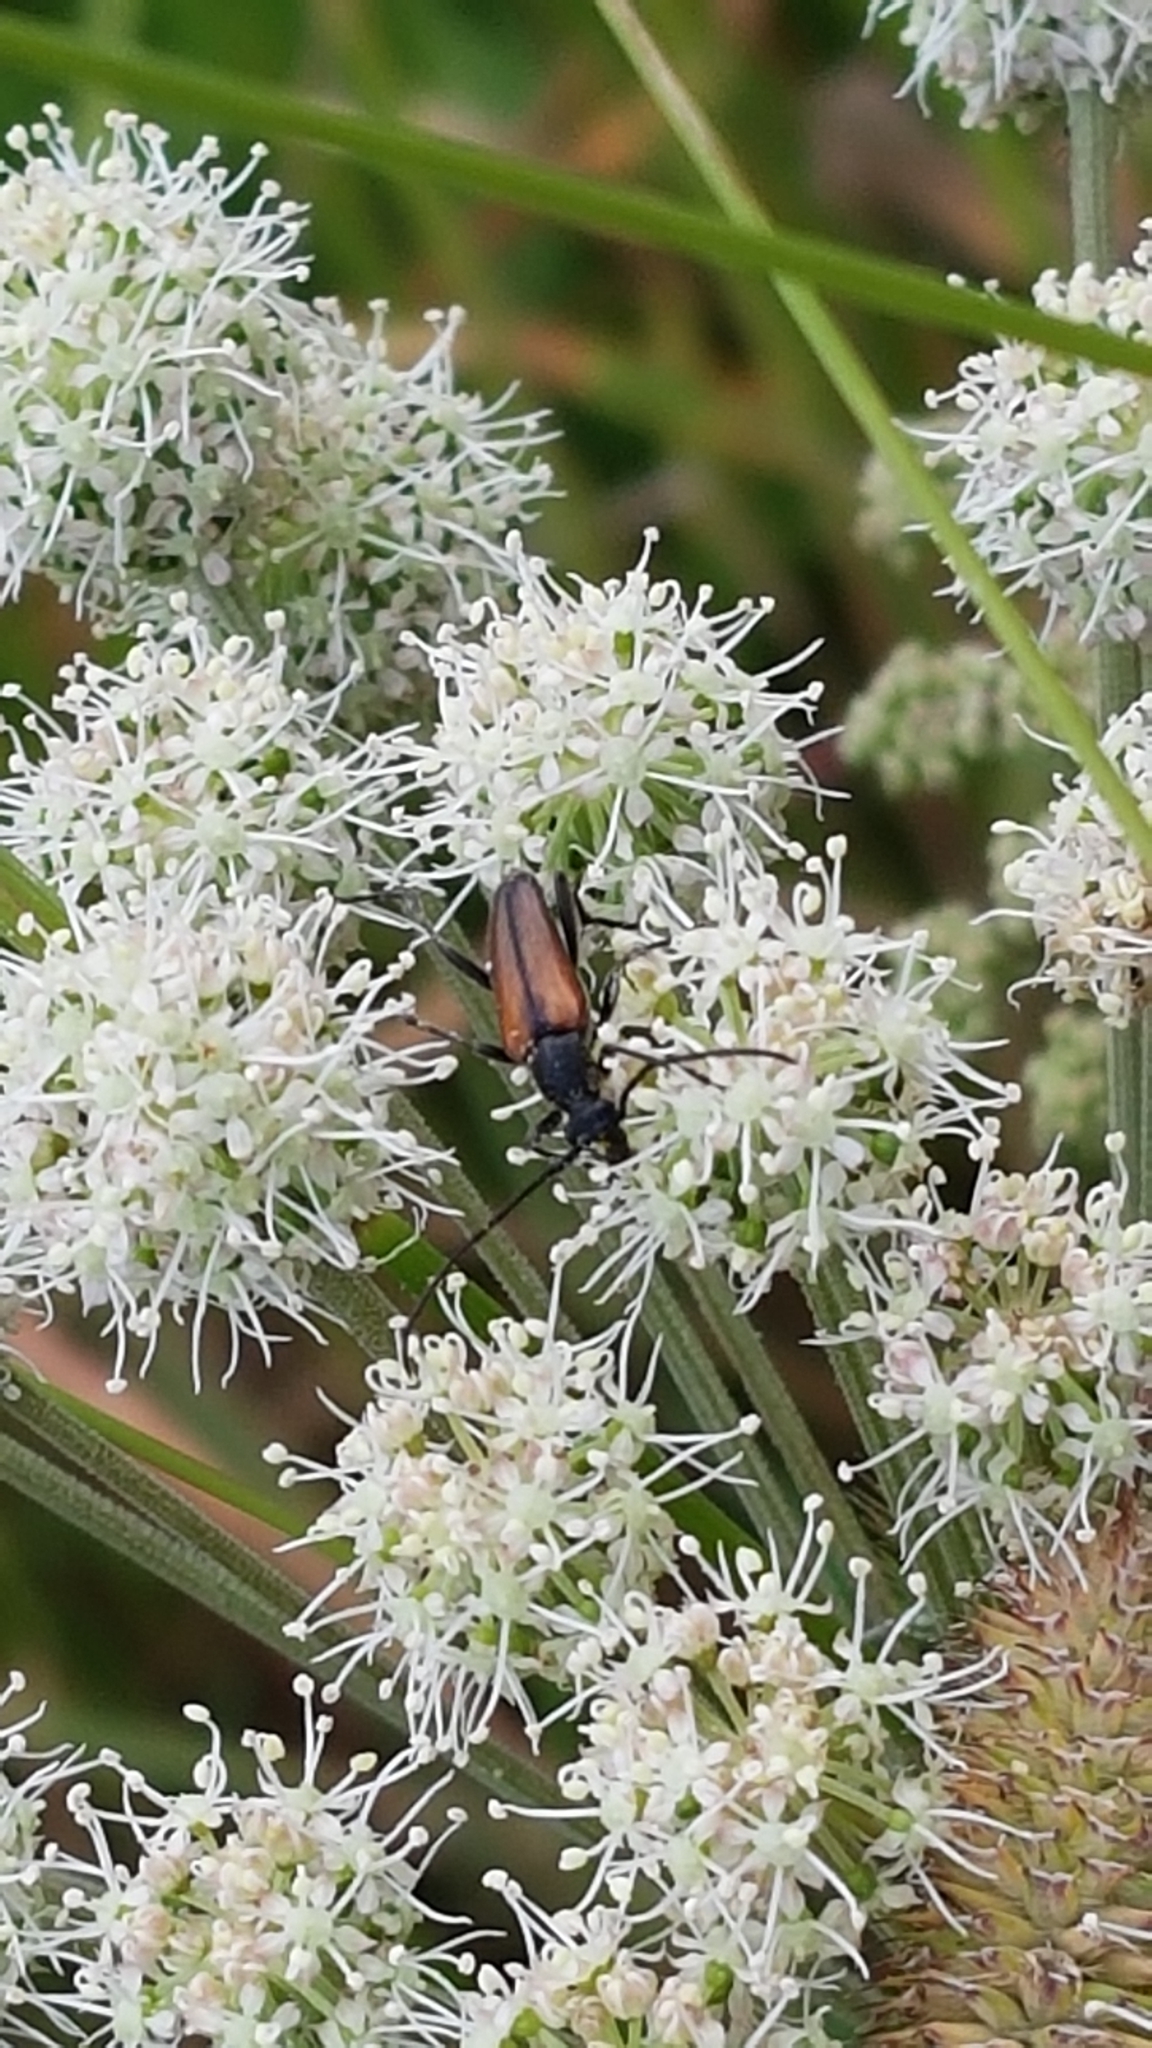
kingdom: Animalia
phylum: Arthropoda
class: Insecta
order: Coleoptera
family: Cerambycidae
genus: Stenurella
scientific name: Stenurella melanura
